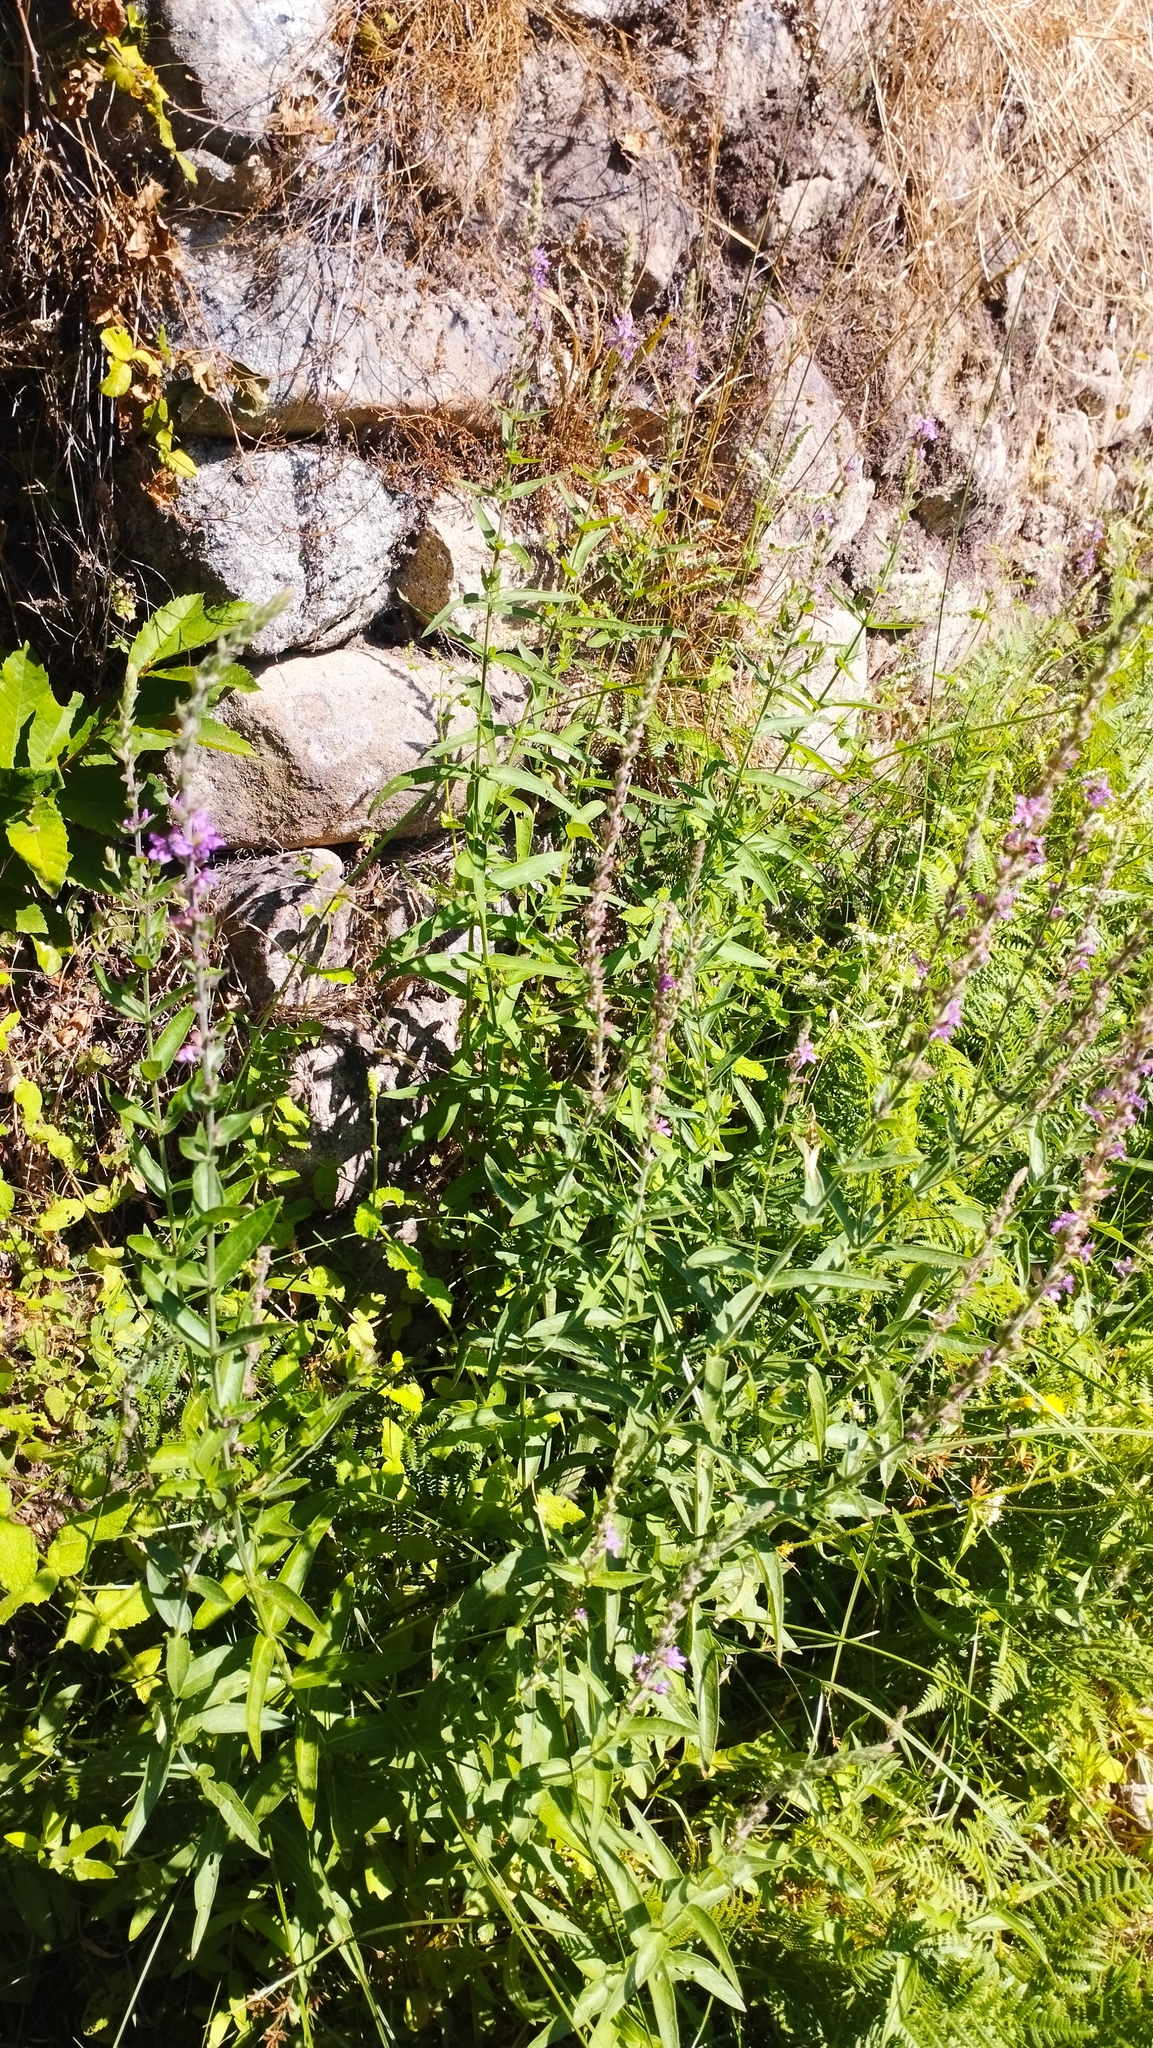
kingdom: Plantae
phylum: Tracheophyta
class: Magnoliopsida
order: Myrtales
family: Lythraceae
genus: Lythrum
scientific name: Lythrum salicaria
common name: Purple loosestrife
